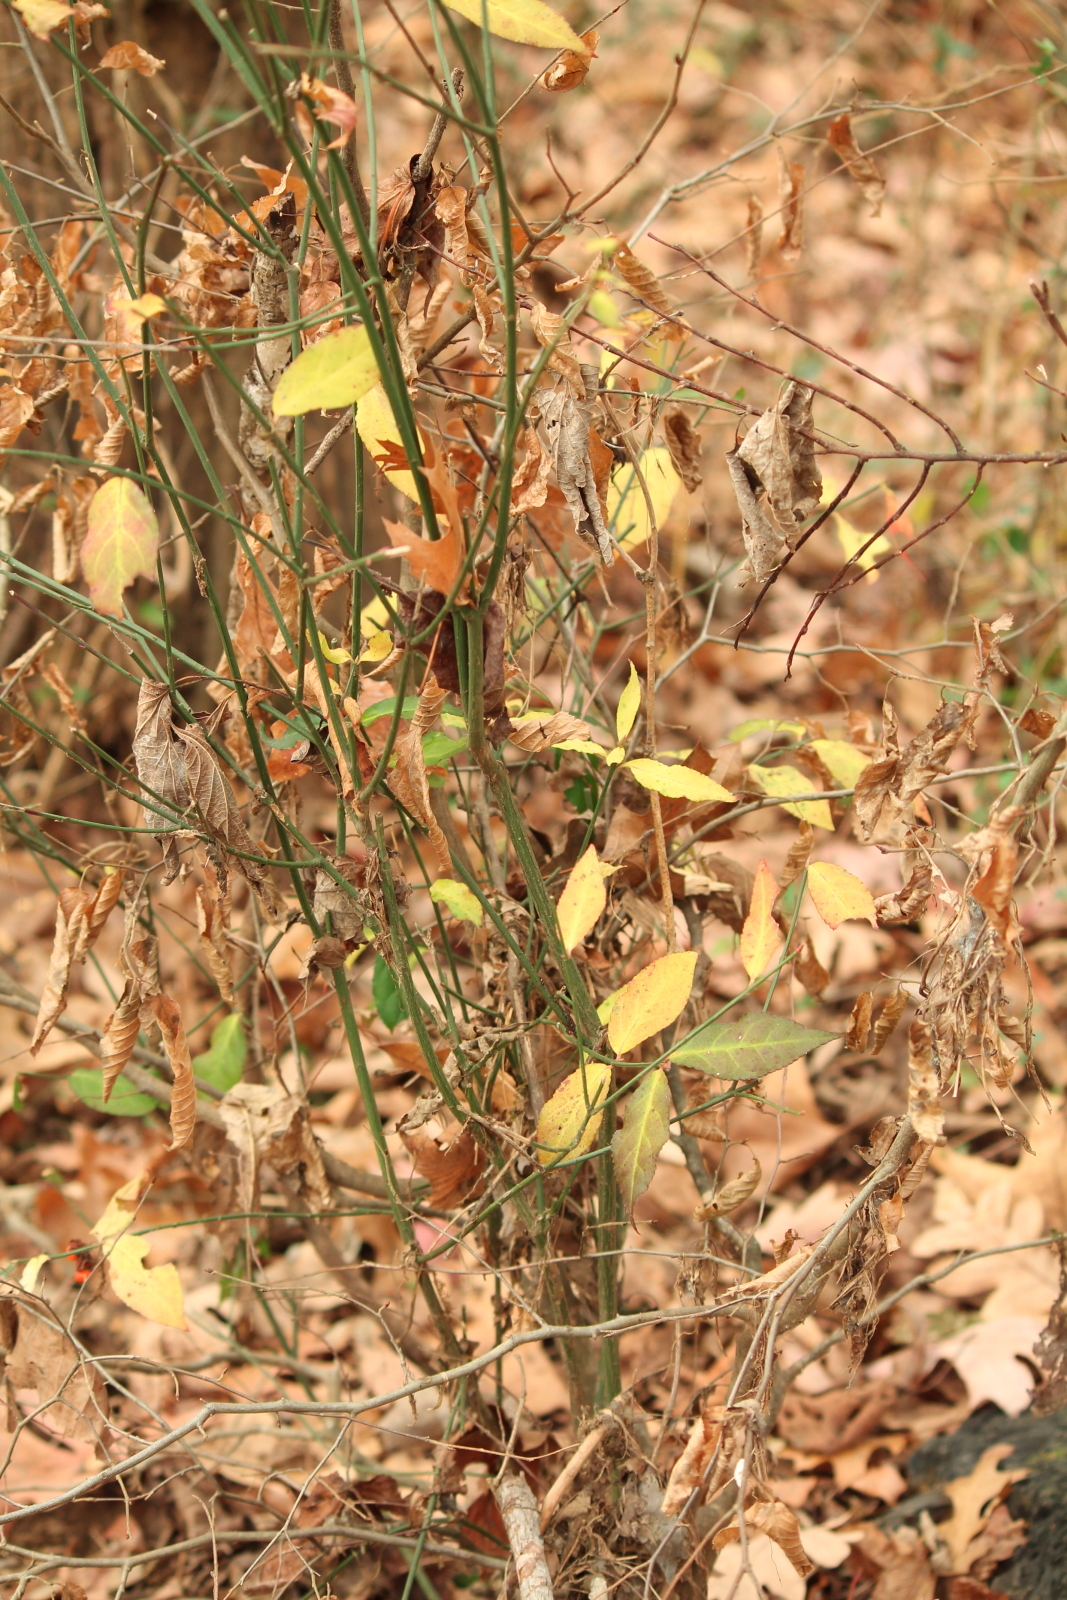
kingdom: Plantae
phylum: Tracheophyta
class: Magnoliopsida
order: Celastrales
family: Celastraceae
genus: Euonymus
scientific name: Euonymus americanus
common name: Bursting-heart
